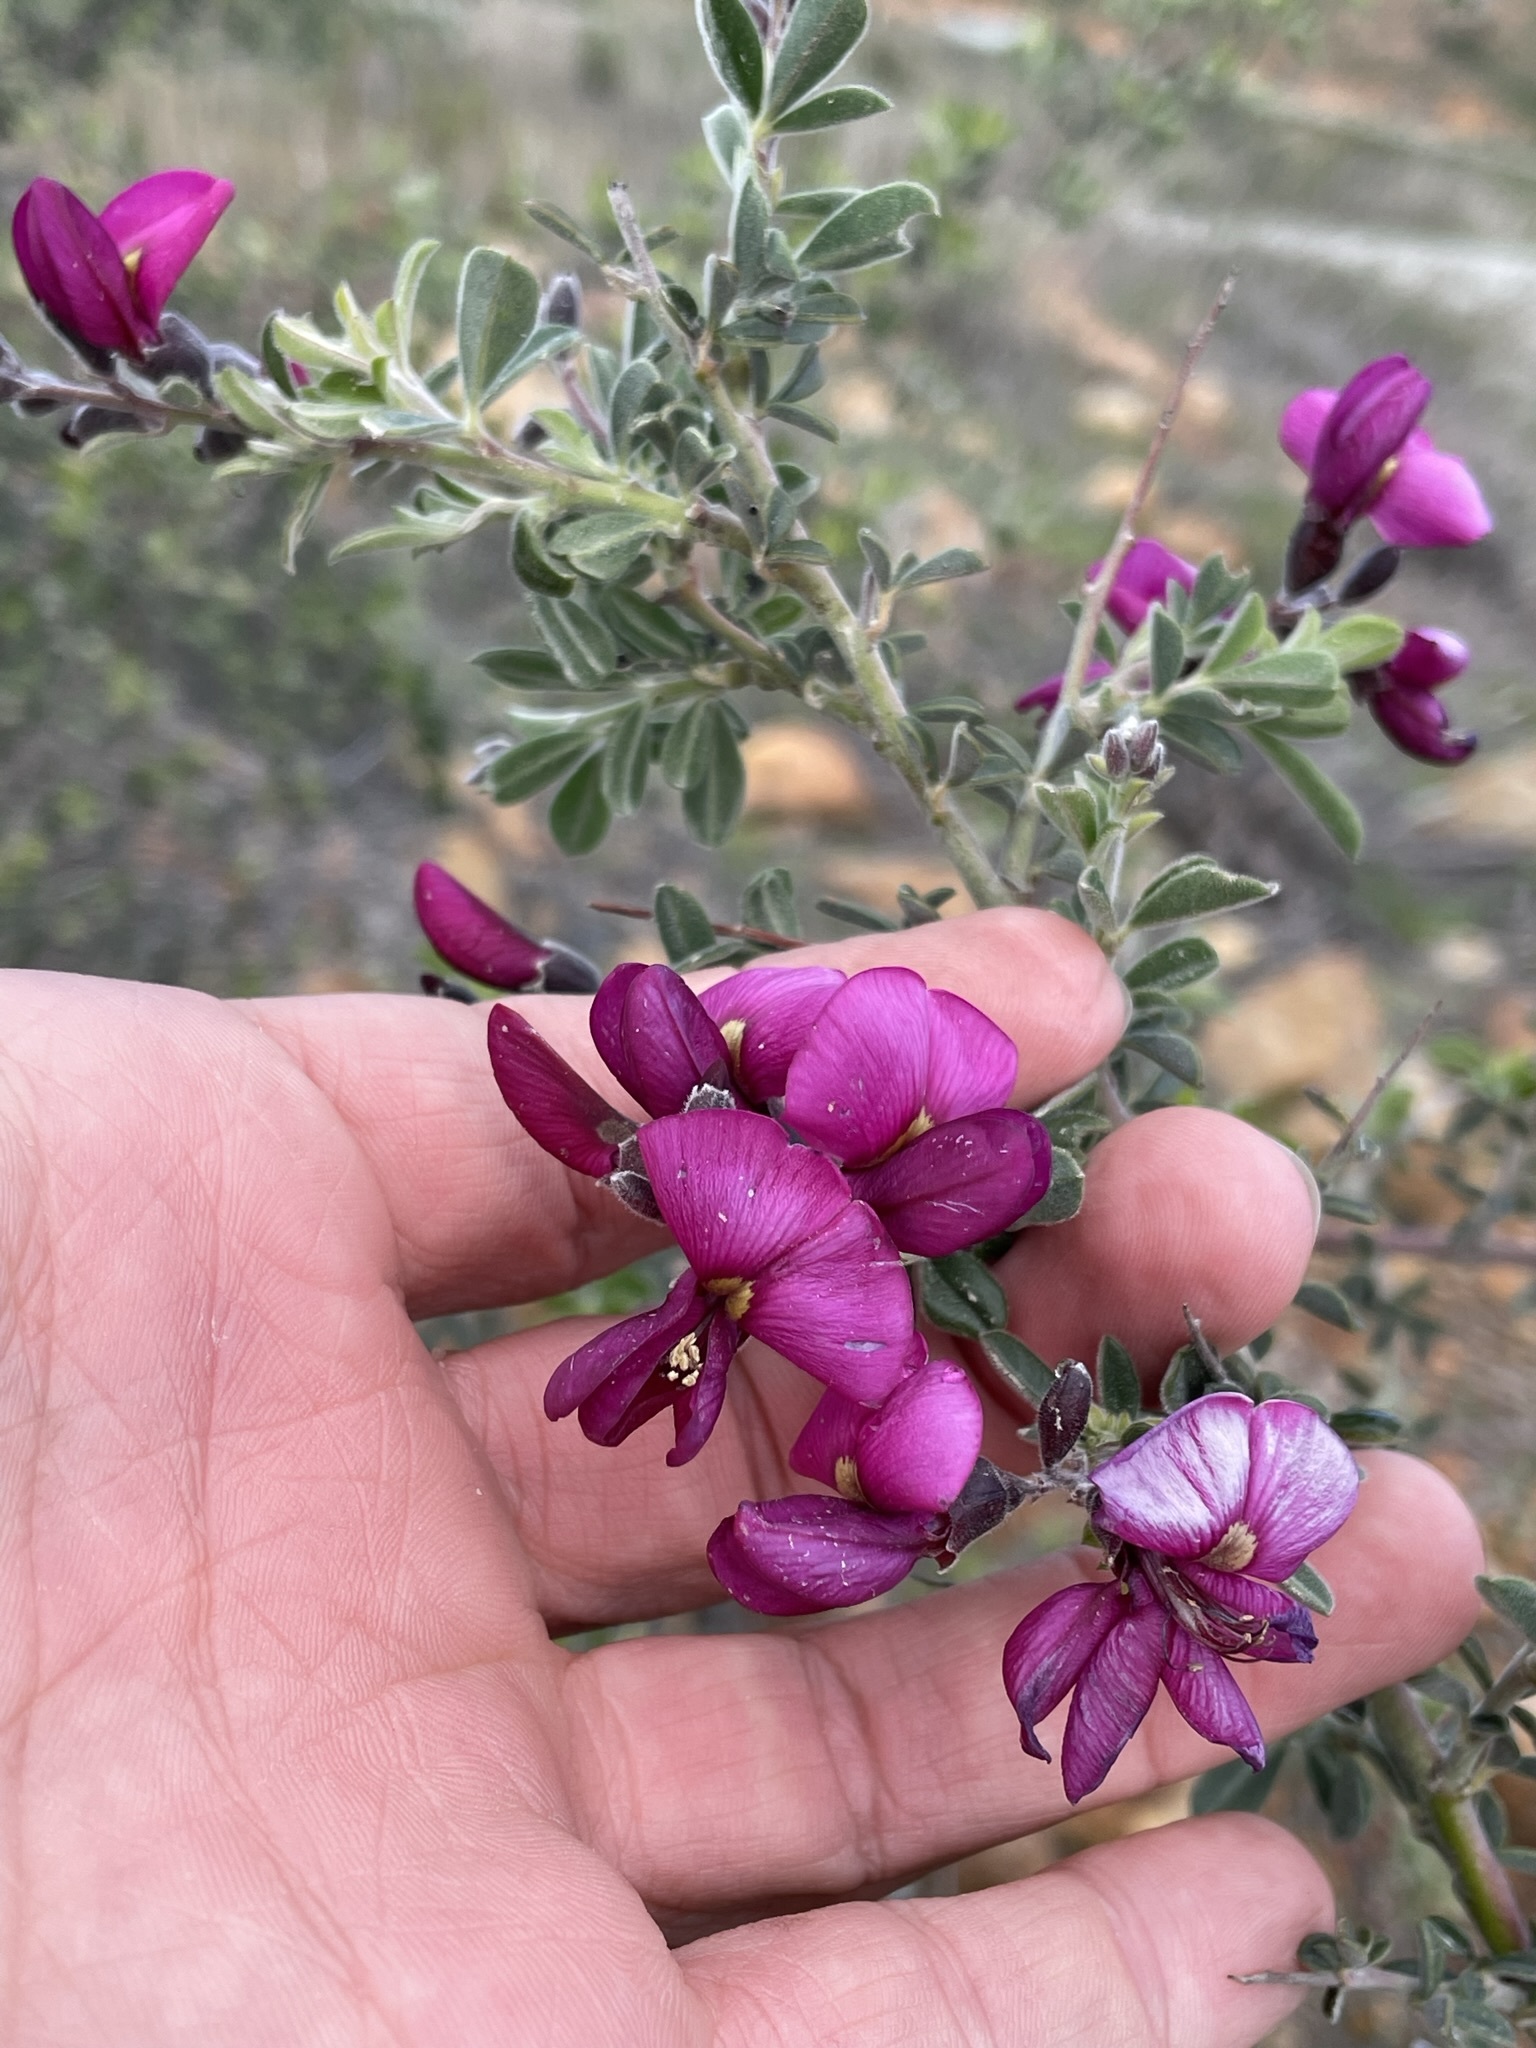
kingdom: Plantae
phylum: Tracheophyta
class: Magnoliopsida
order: Fabales
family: Fabaceae
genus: Pickeringia
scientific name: Pickeringia montana
